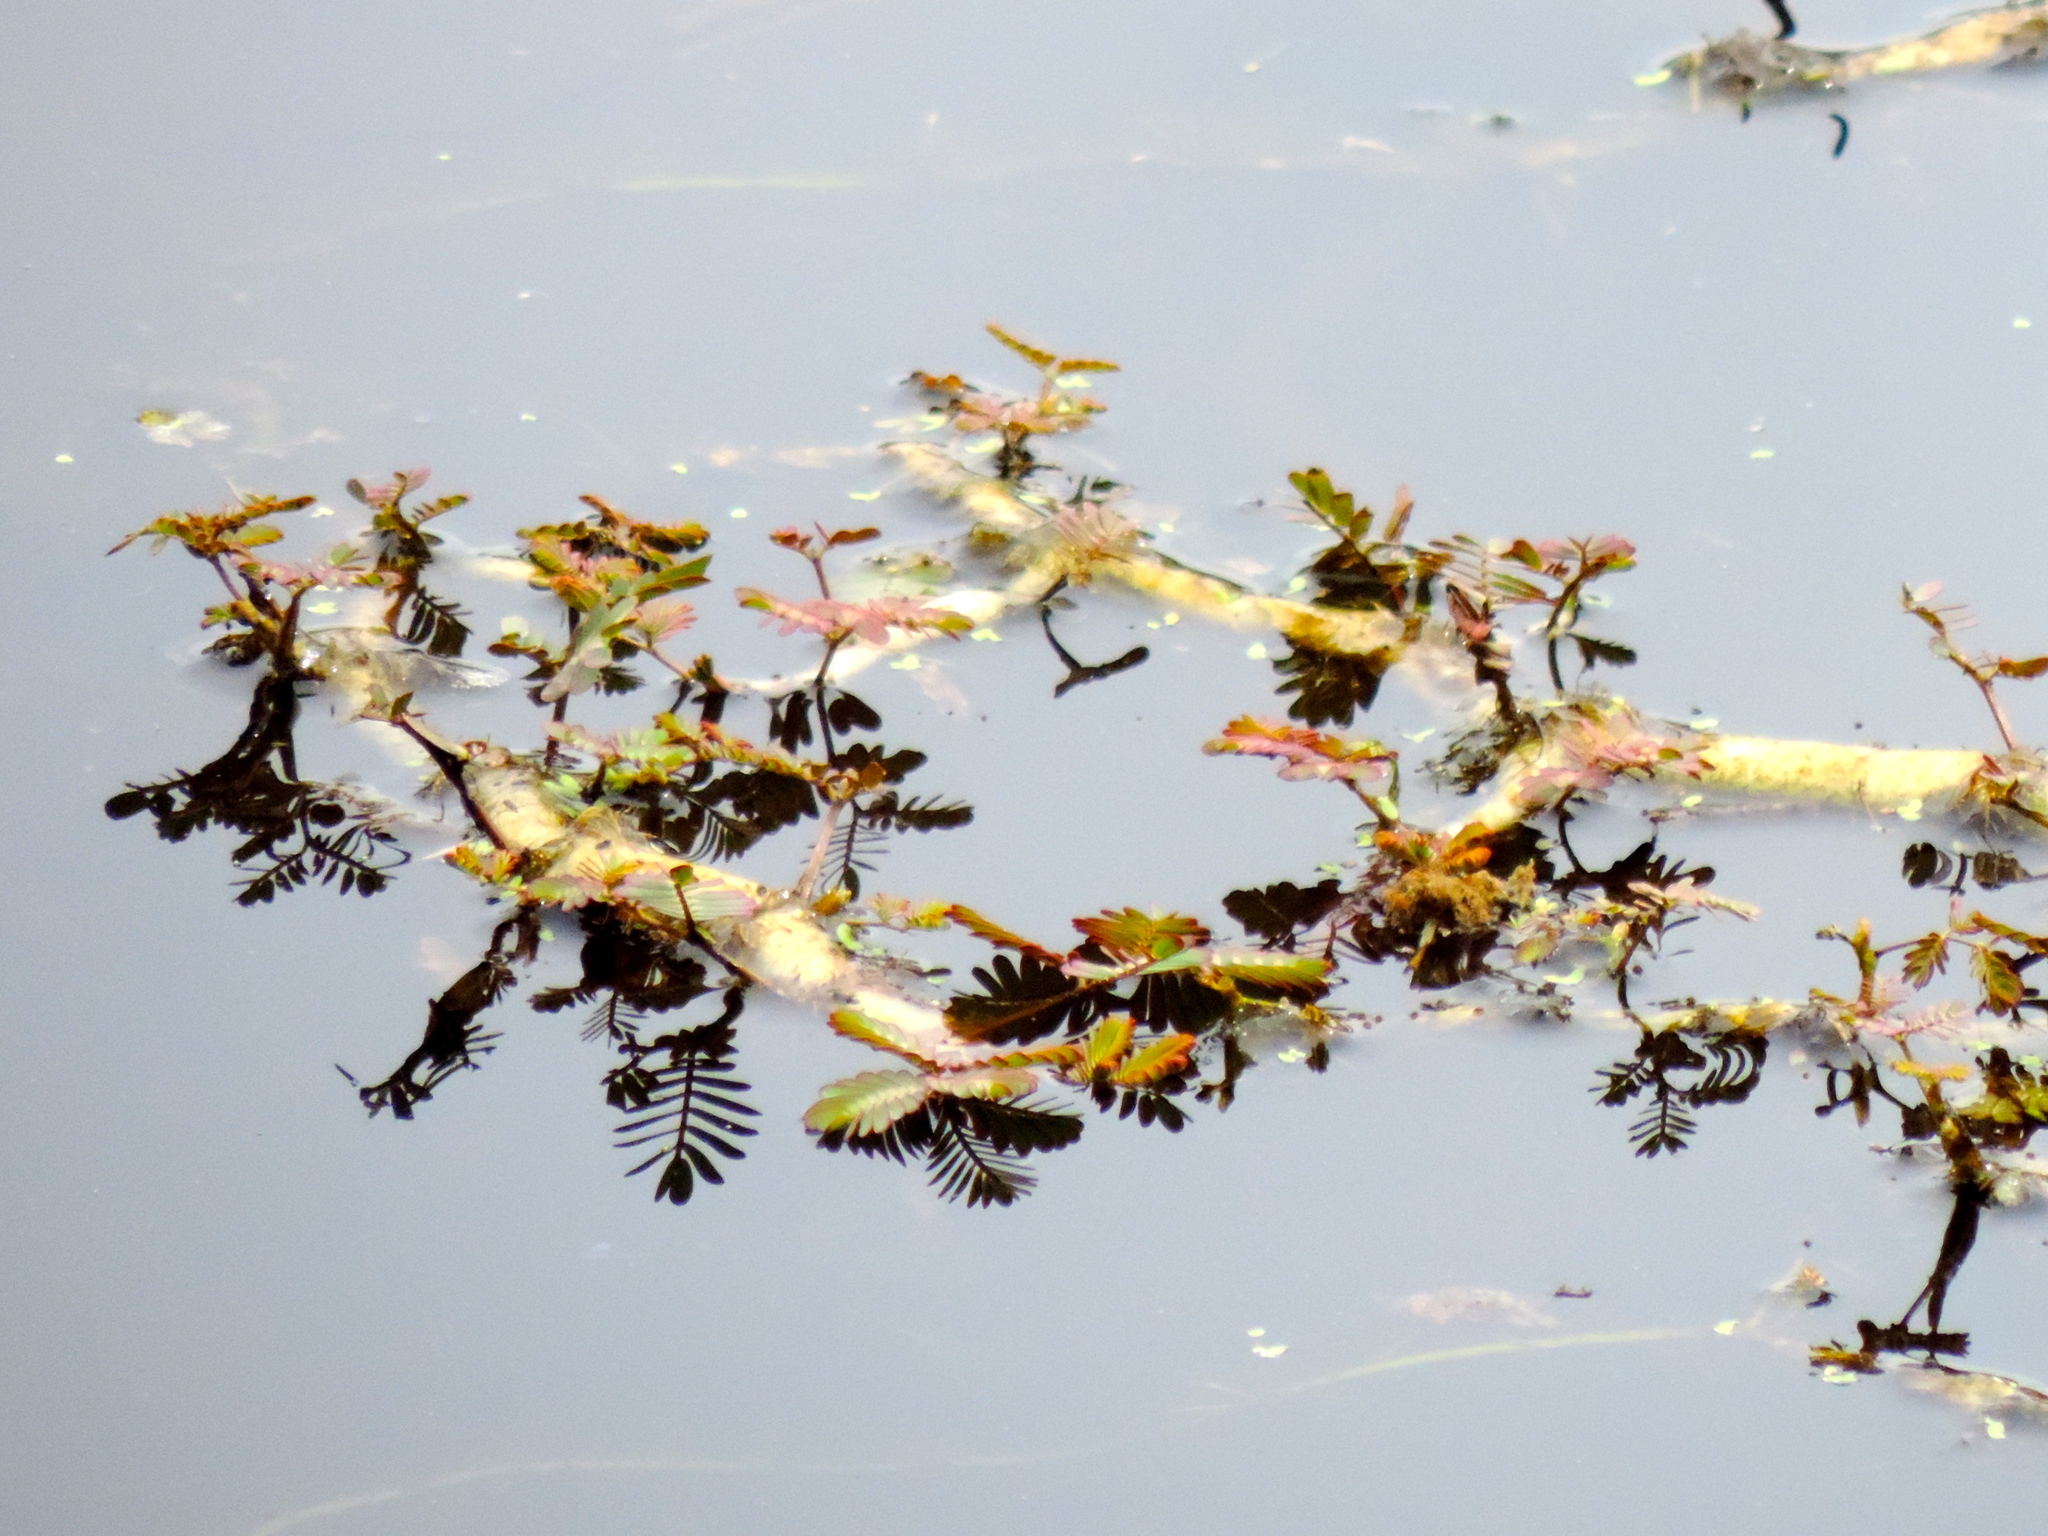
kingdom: Plantae
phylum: Tracheophyta
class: Magnoliopsida
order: Fabales
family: Fabaceae
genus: Neptunia
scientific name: Neptunia plena
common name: Dead and awake
